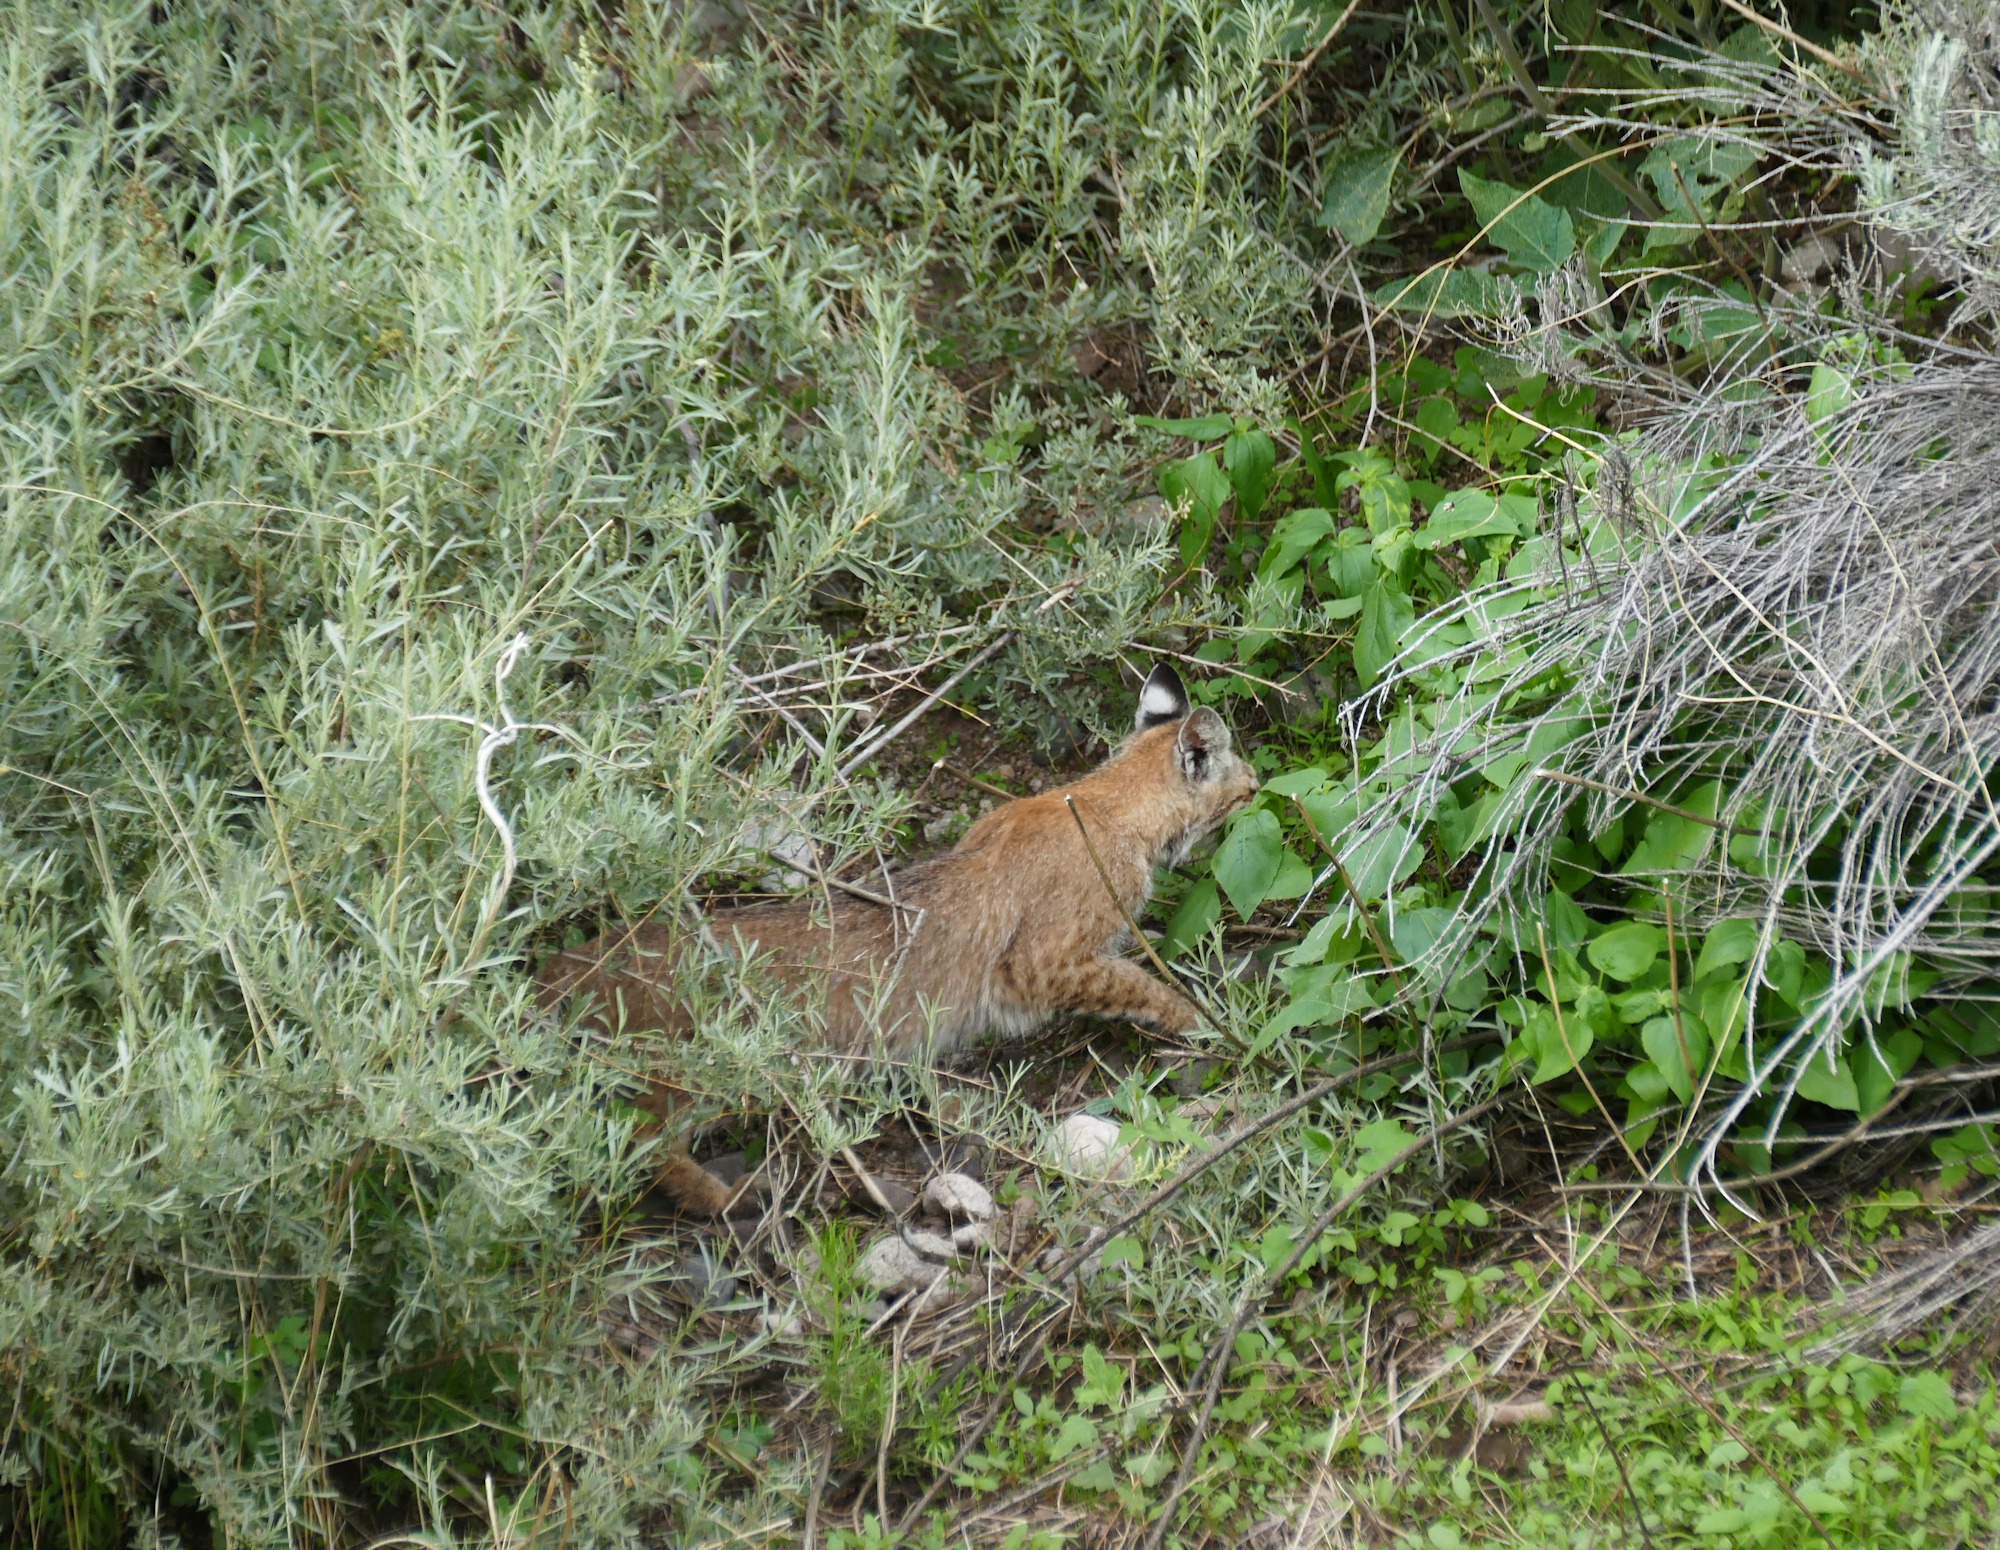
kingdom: Animalia
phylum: Chordata
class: Mammalia
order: Carnivora
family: Felidae
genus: Lynx
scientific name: Lynx rufus
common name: Bobcat
